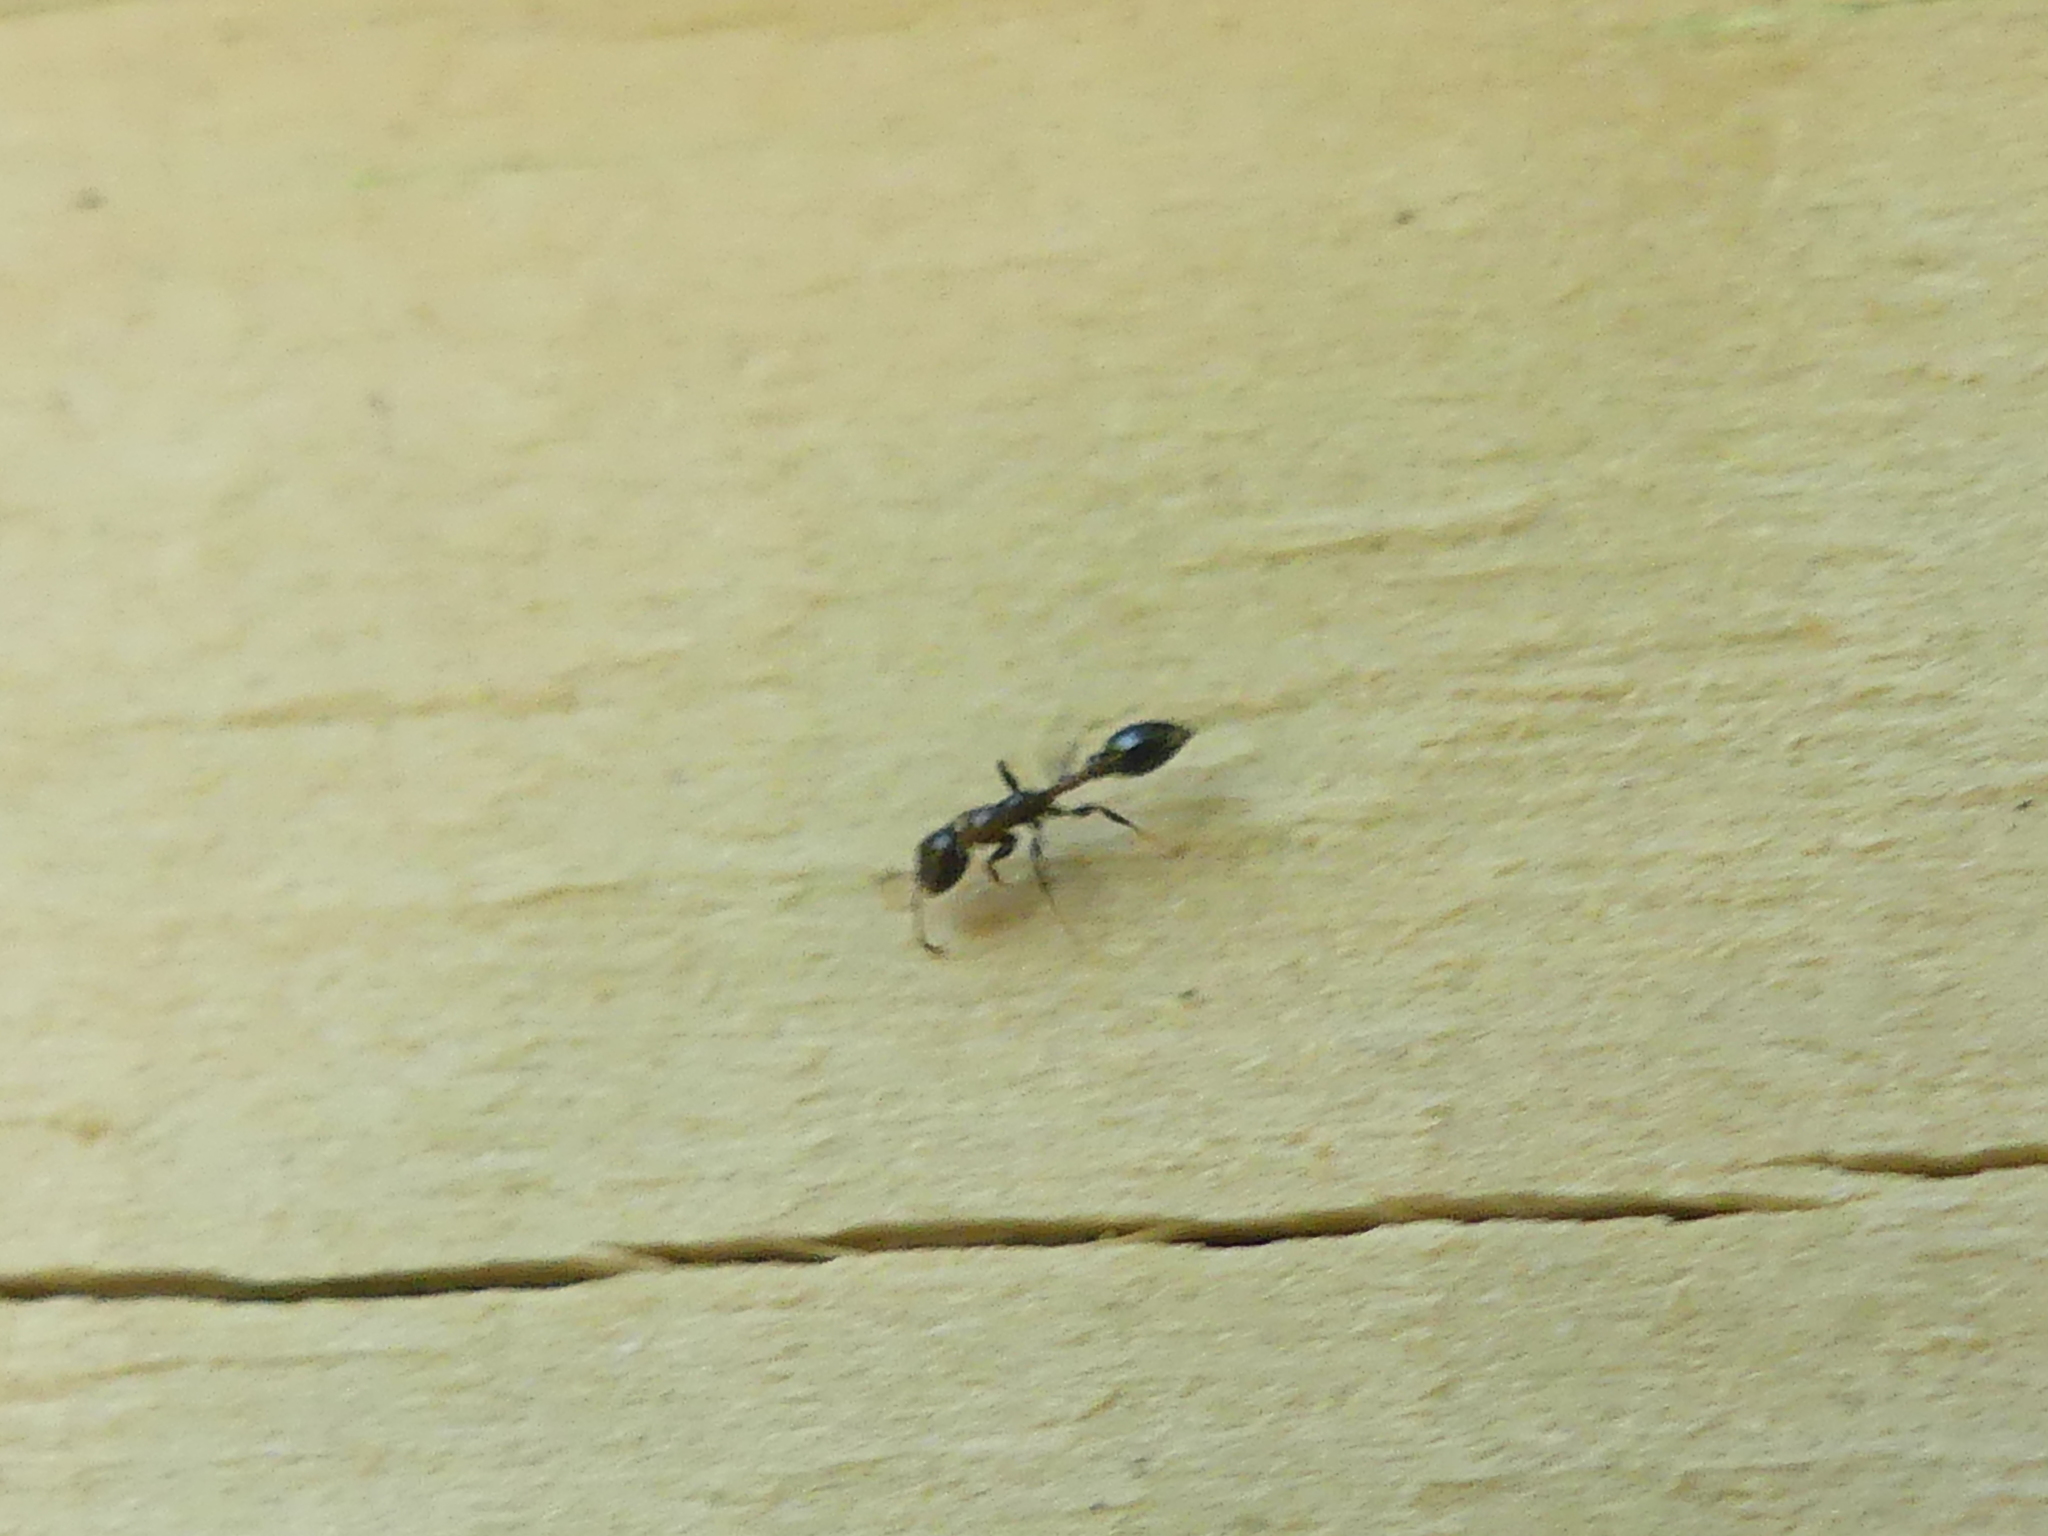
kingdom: Animalia
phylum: Arthropoda
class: Insecta
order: Hymenoptera
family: Formicidae
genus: Pseudomyrmex
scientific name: Pseudomyrmex ejectus
